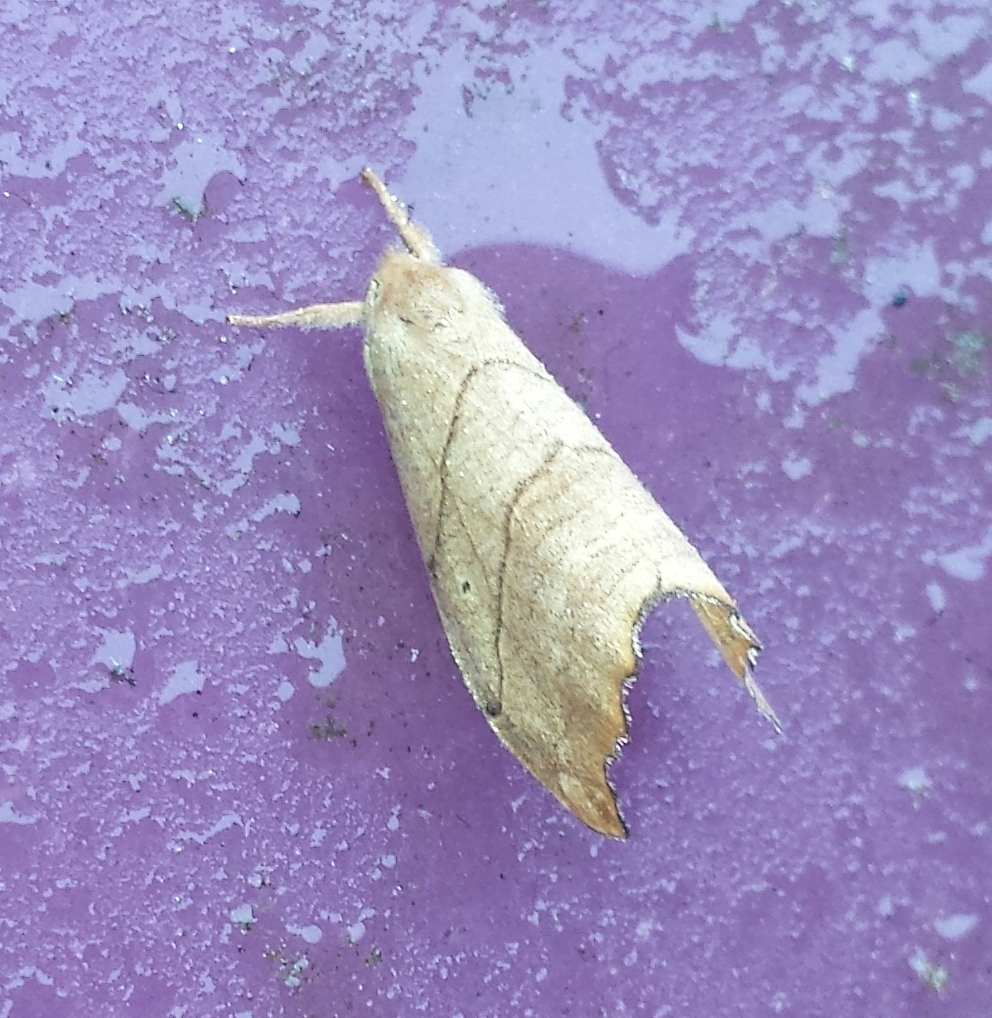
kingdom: Animalia
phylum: Arthropoda
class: Insecta
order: Lepidoptera
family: Drepanidae
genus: Falcaria
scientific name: Falcaria bilineata
